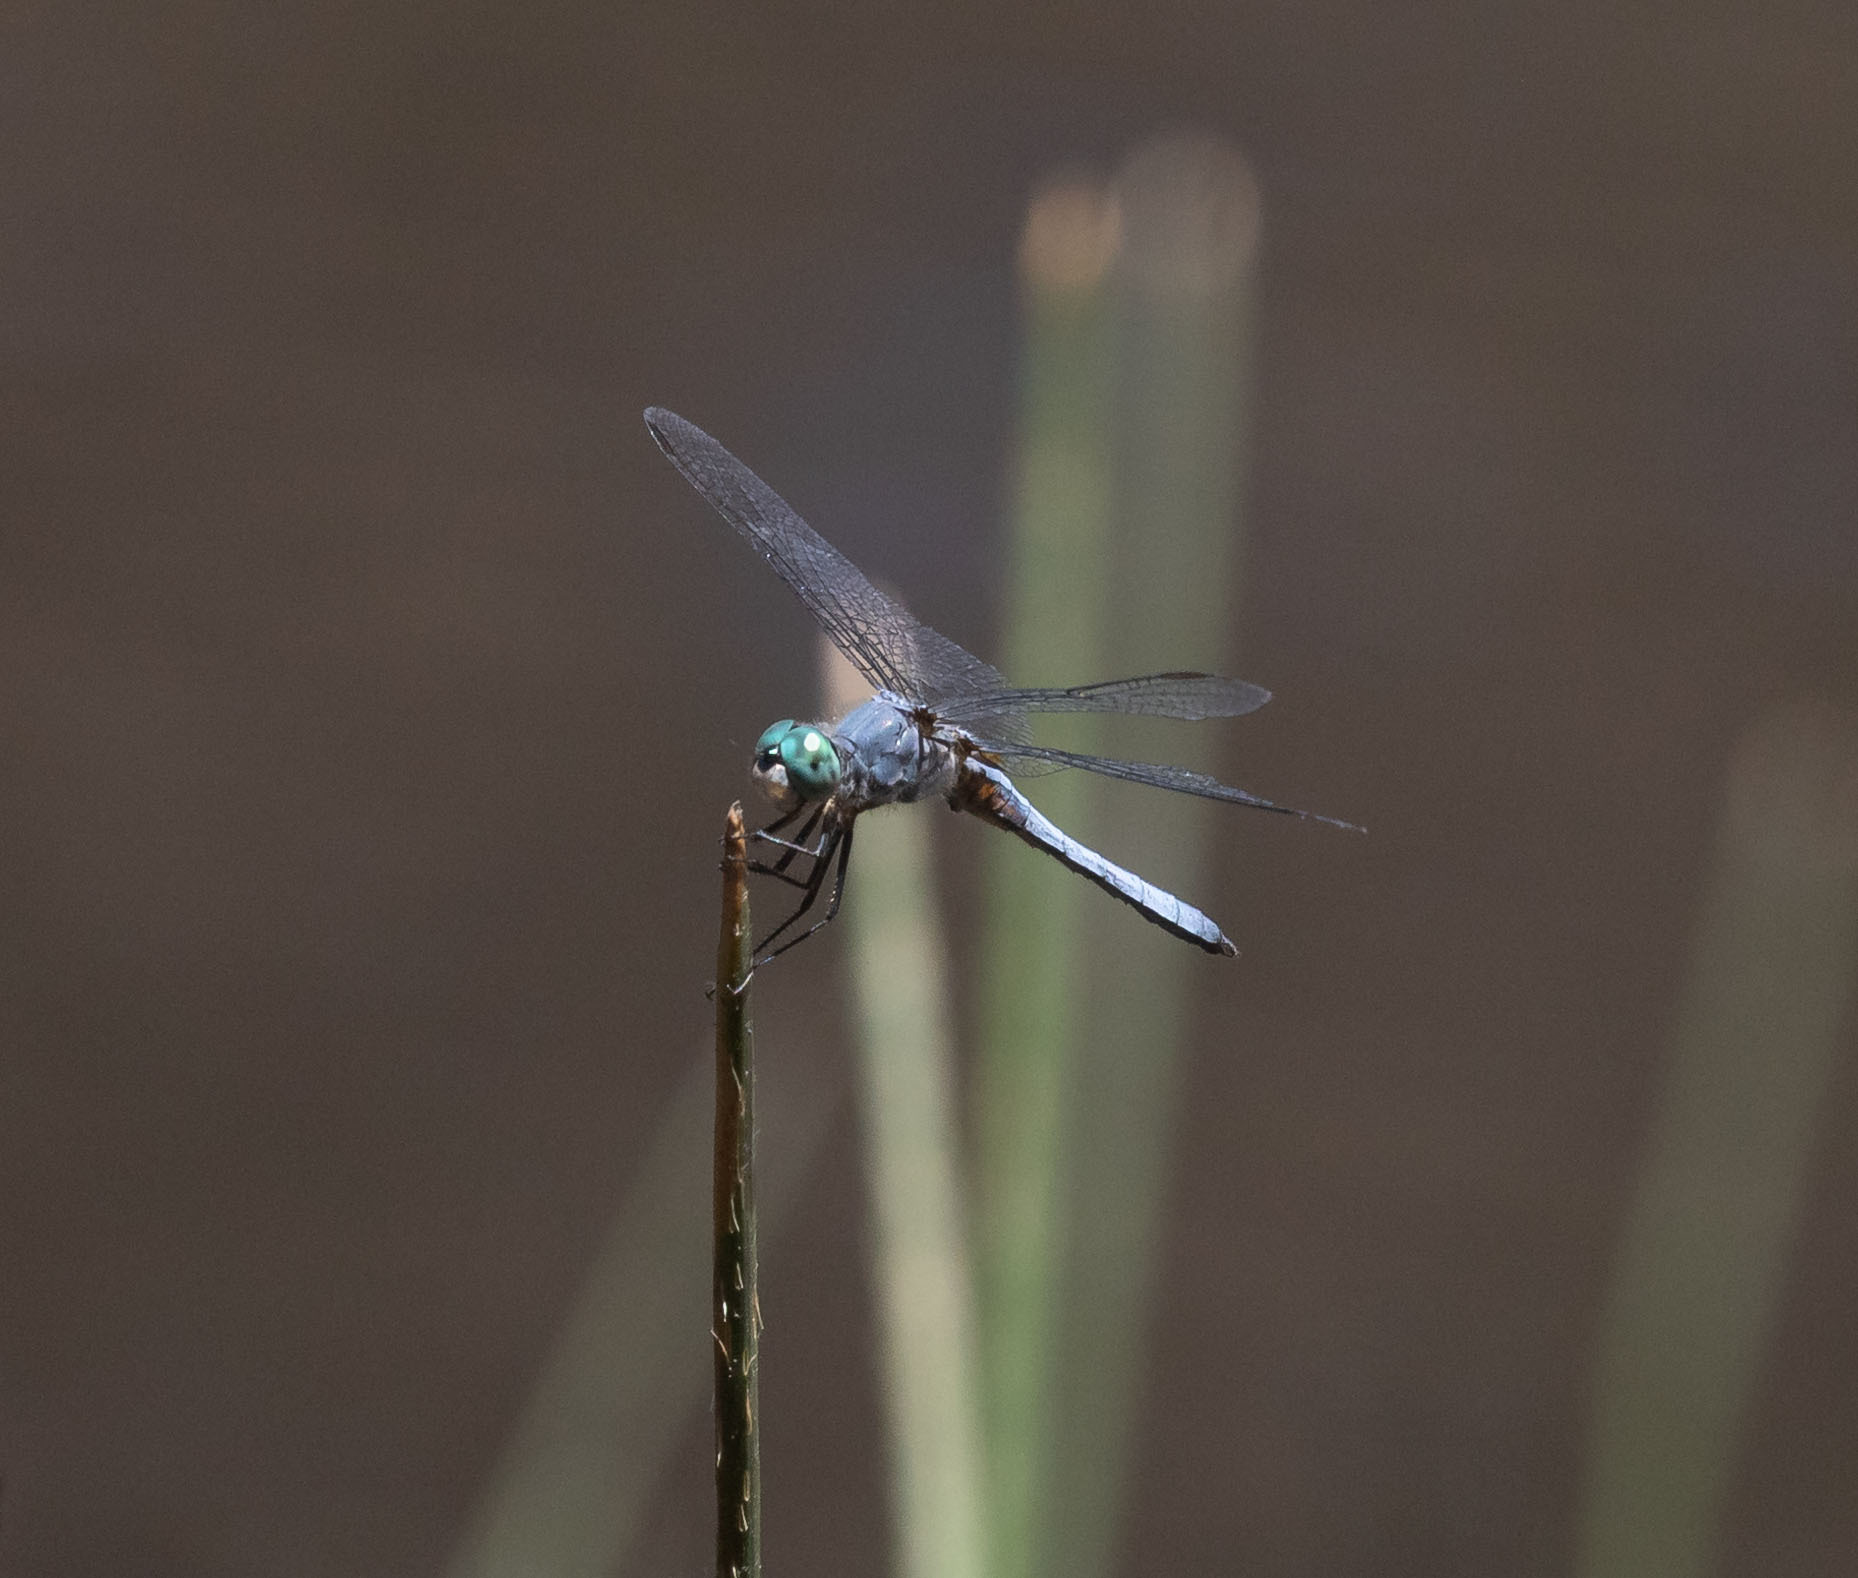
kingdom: Animalia
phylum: Arthropoda
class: Insecta
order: Odonata
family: Libellulidae
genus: Pachydiplax
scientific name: Pachydiplax longipennis
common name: Blue dasher
